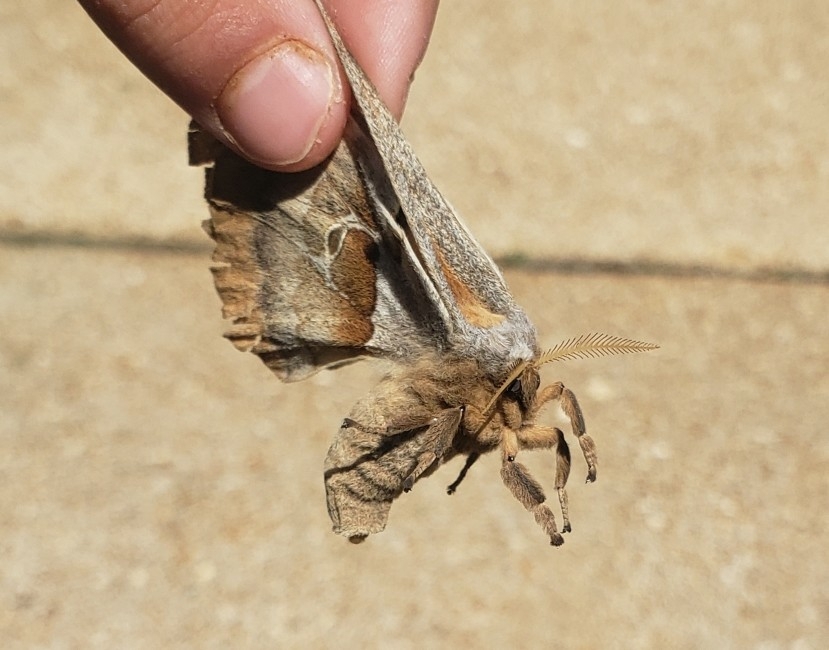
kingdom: Animalia
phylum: Arthropoda
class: Insecta
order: Lepidoptera
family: Saturniidae
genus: Antheraea
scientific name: Antheraea polyphemus
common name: Polyphemus moth
